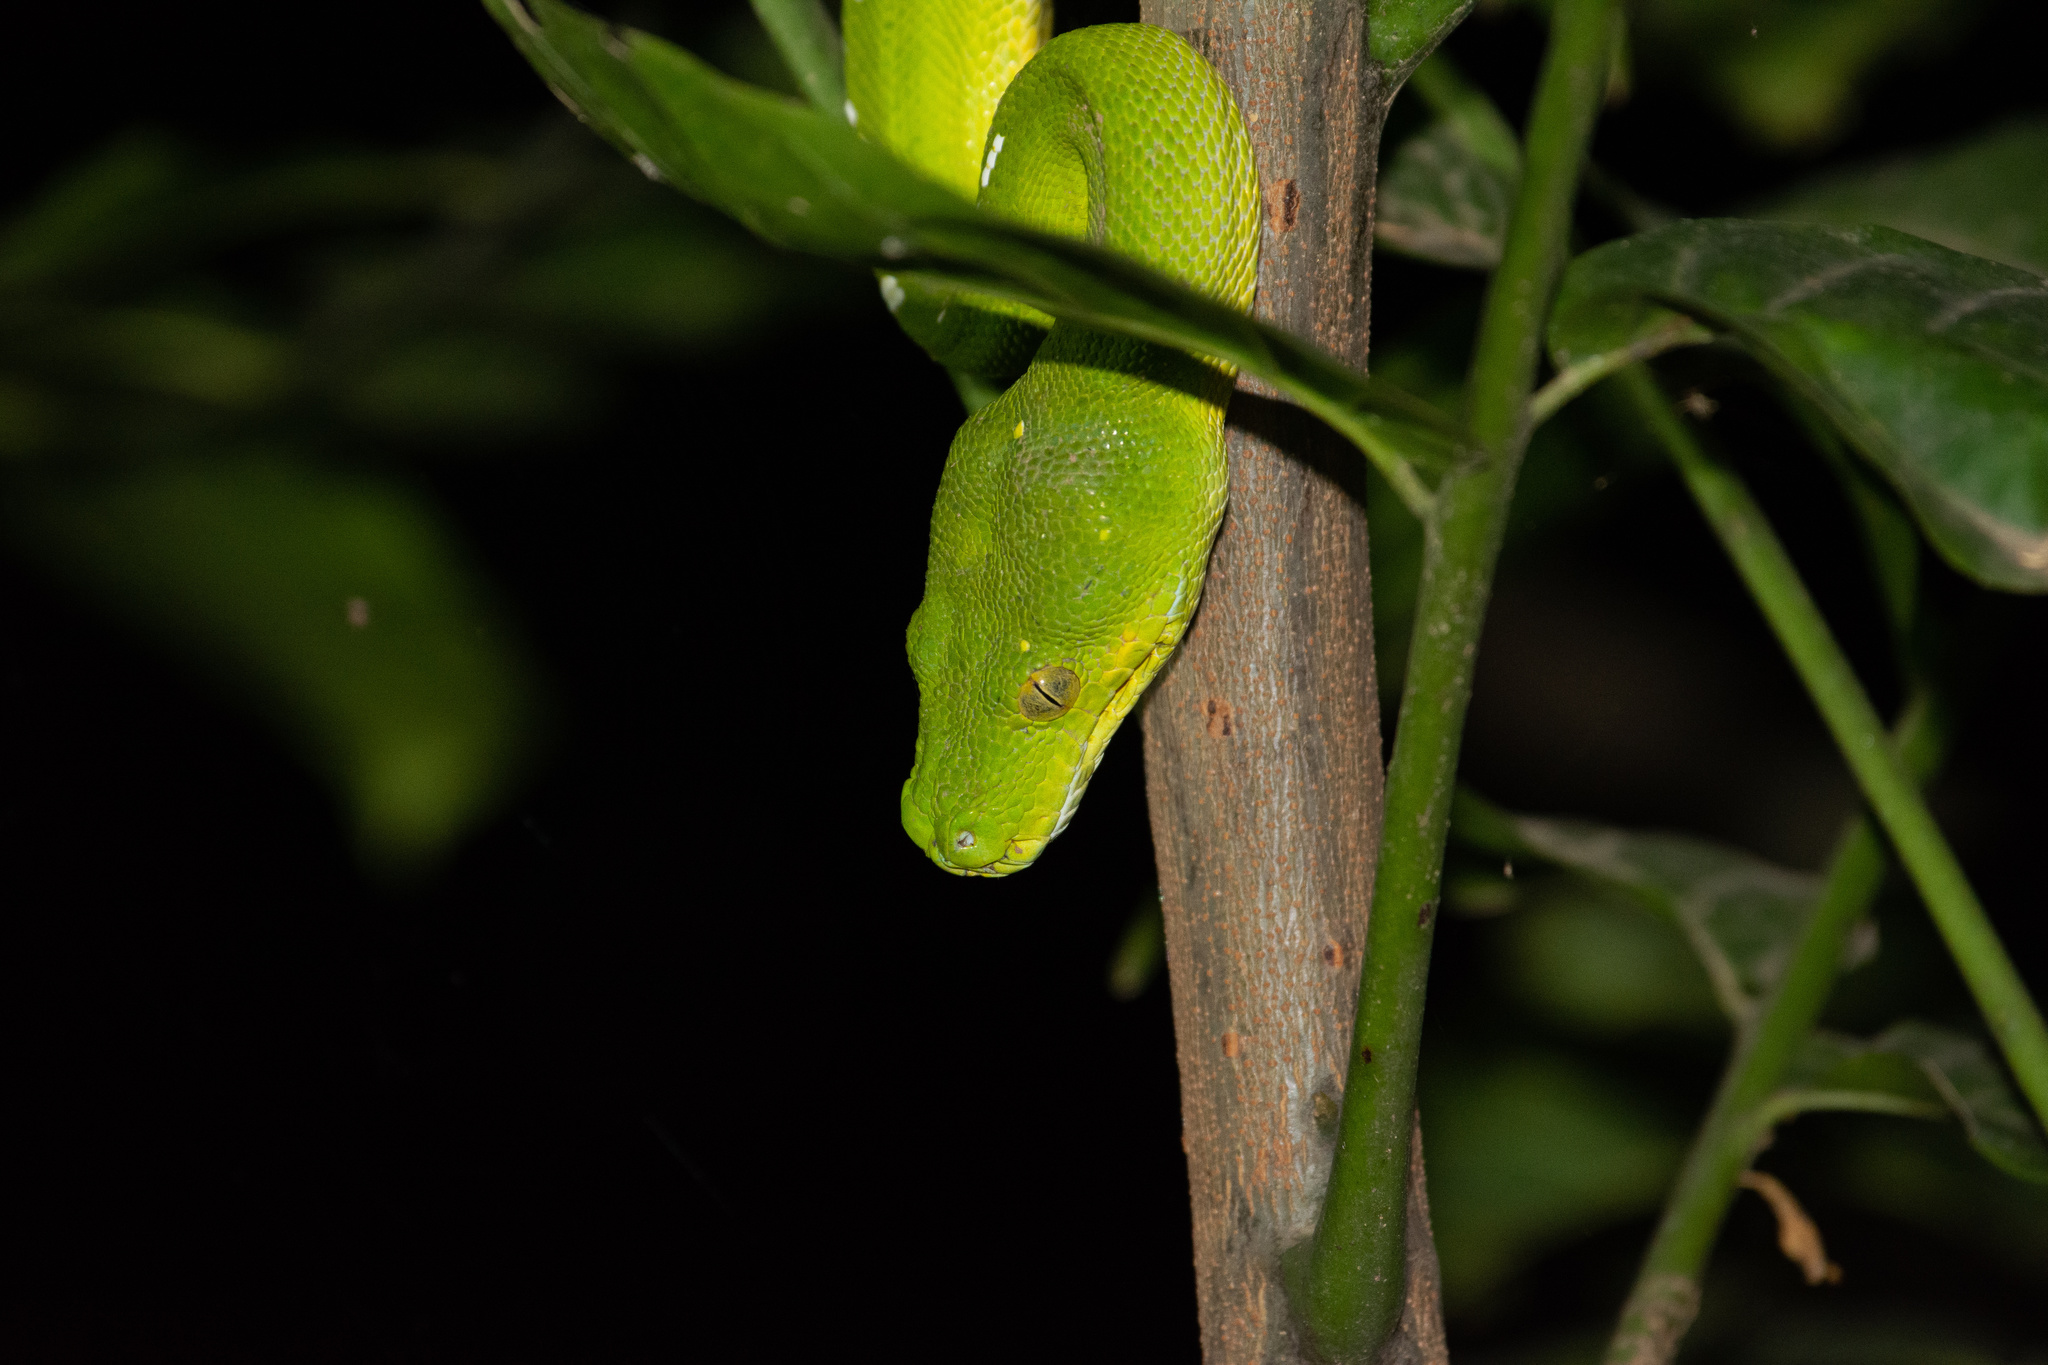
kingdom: Animalia
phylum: Chordata
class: Squamata
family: Pythonidae
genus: Morelia
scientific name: Morelia viridis
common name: Green tree python
